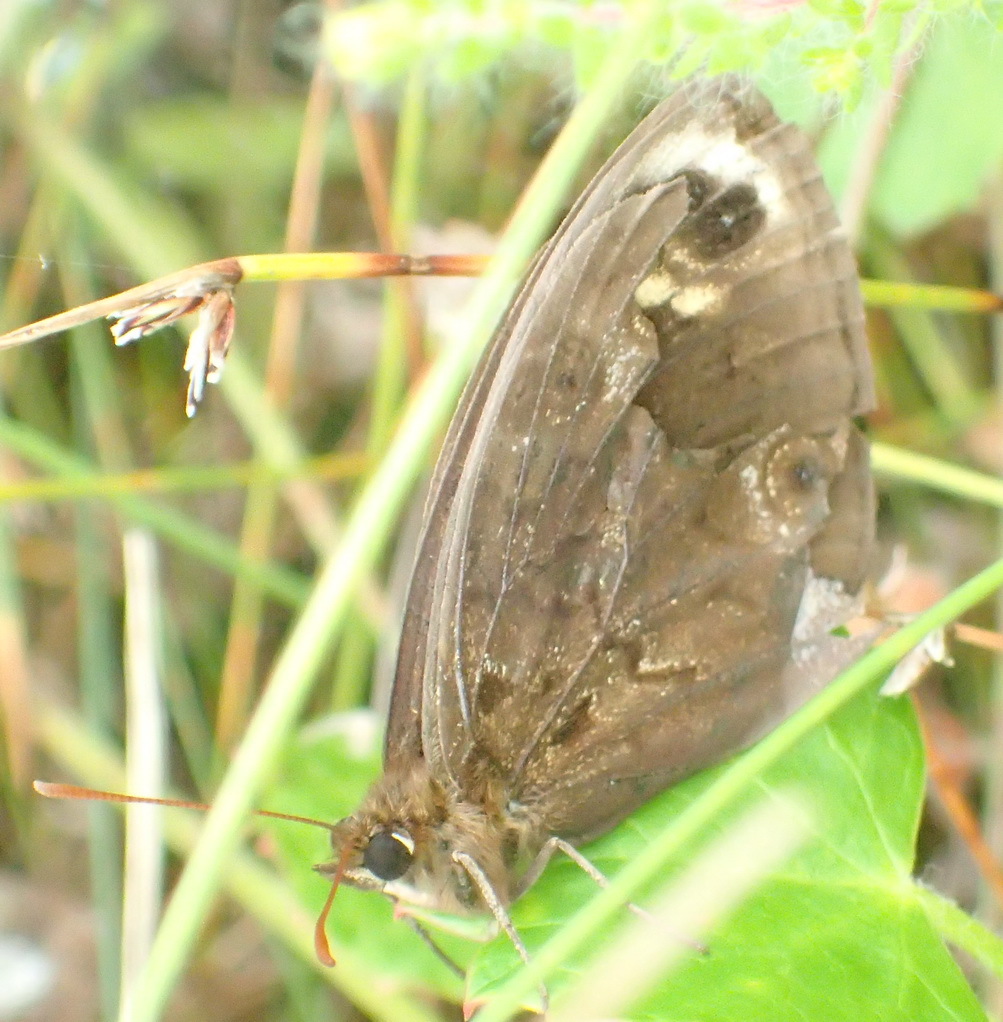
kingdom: Animalia
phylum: Arthropoda
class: Insecta
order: Lepidoptera
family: Nymphalidae
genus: Dira
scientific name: Dira clytus
